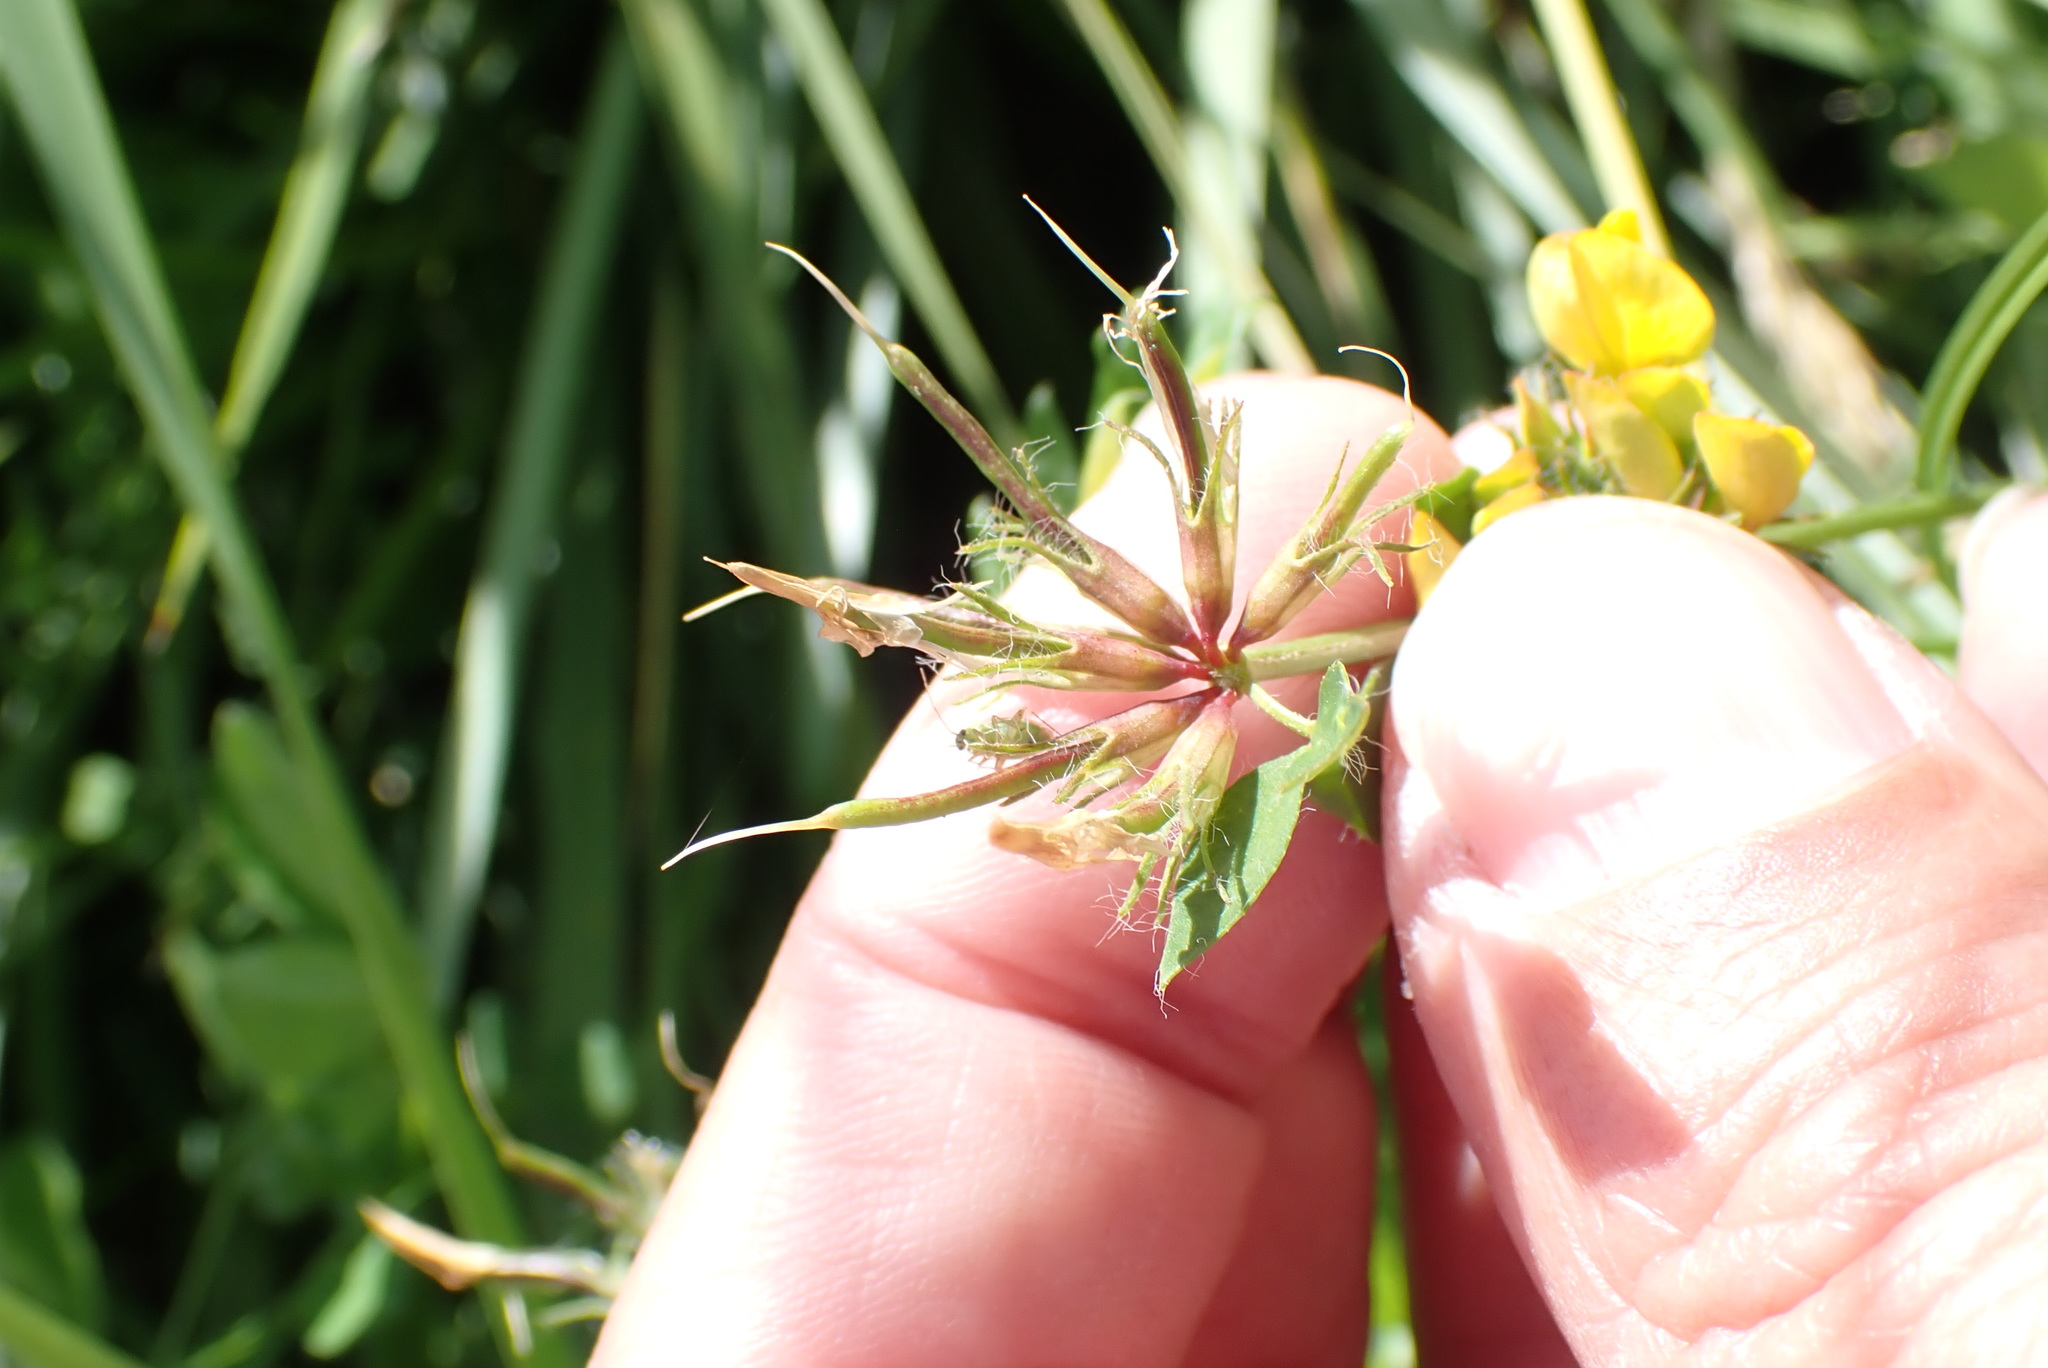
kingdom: Plantae
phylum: Tracheophyta
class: Magnoliopsida
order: Fabales
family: Fabaceae
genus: Lotus
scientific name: Lotus pedunculatus
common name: Greater birdsfoot-trefoil
